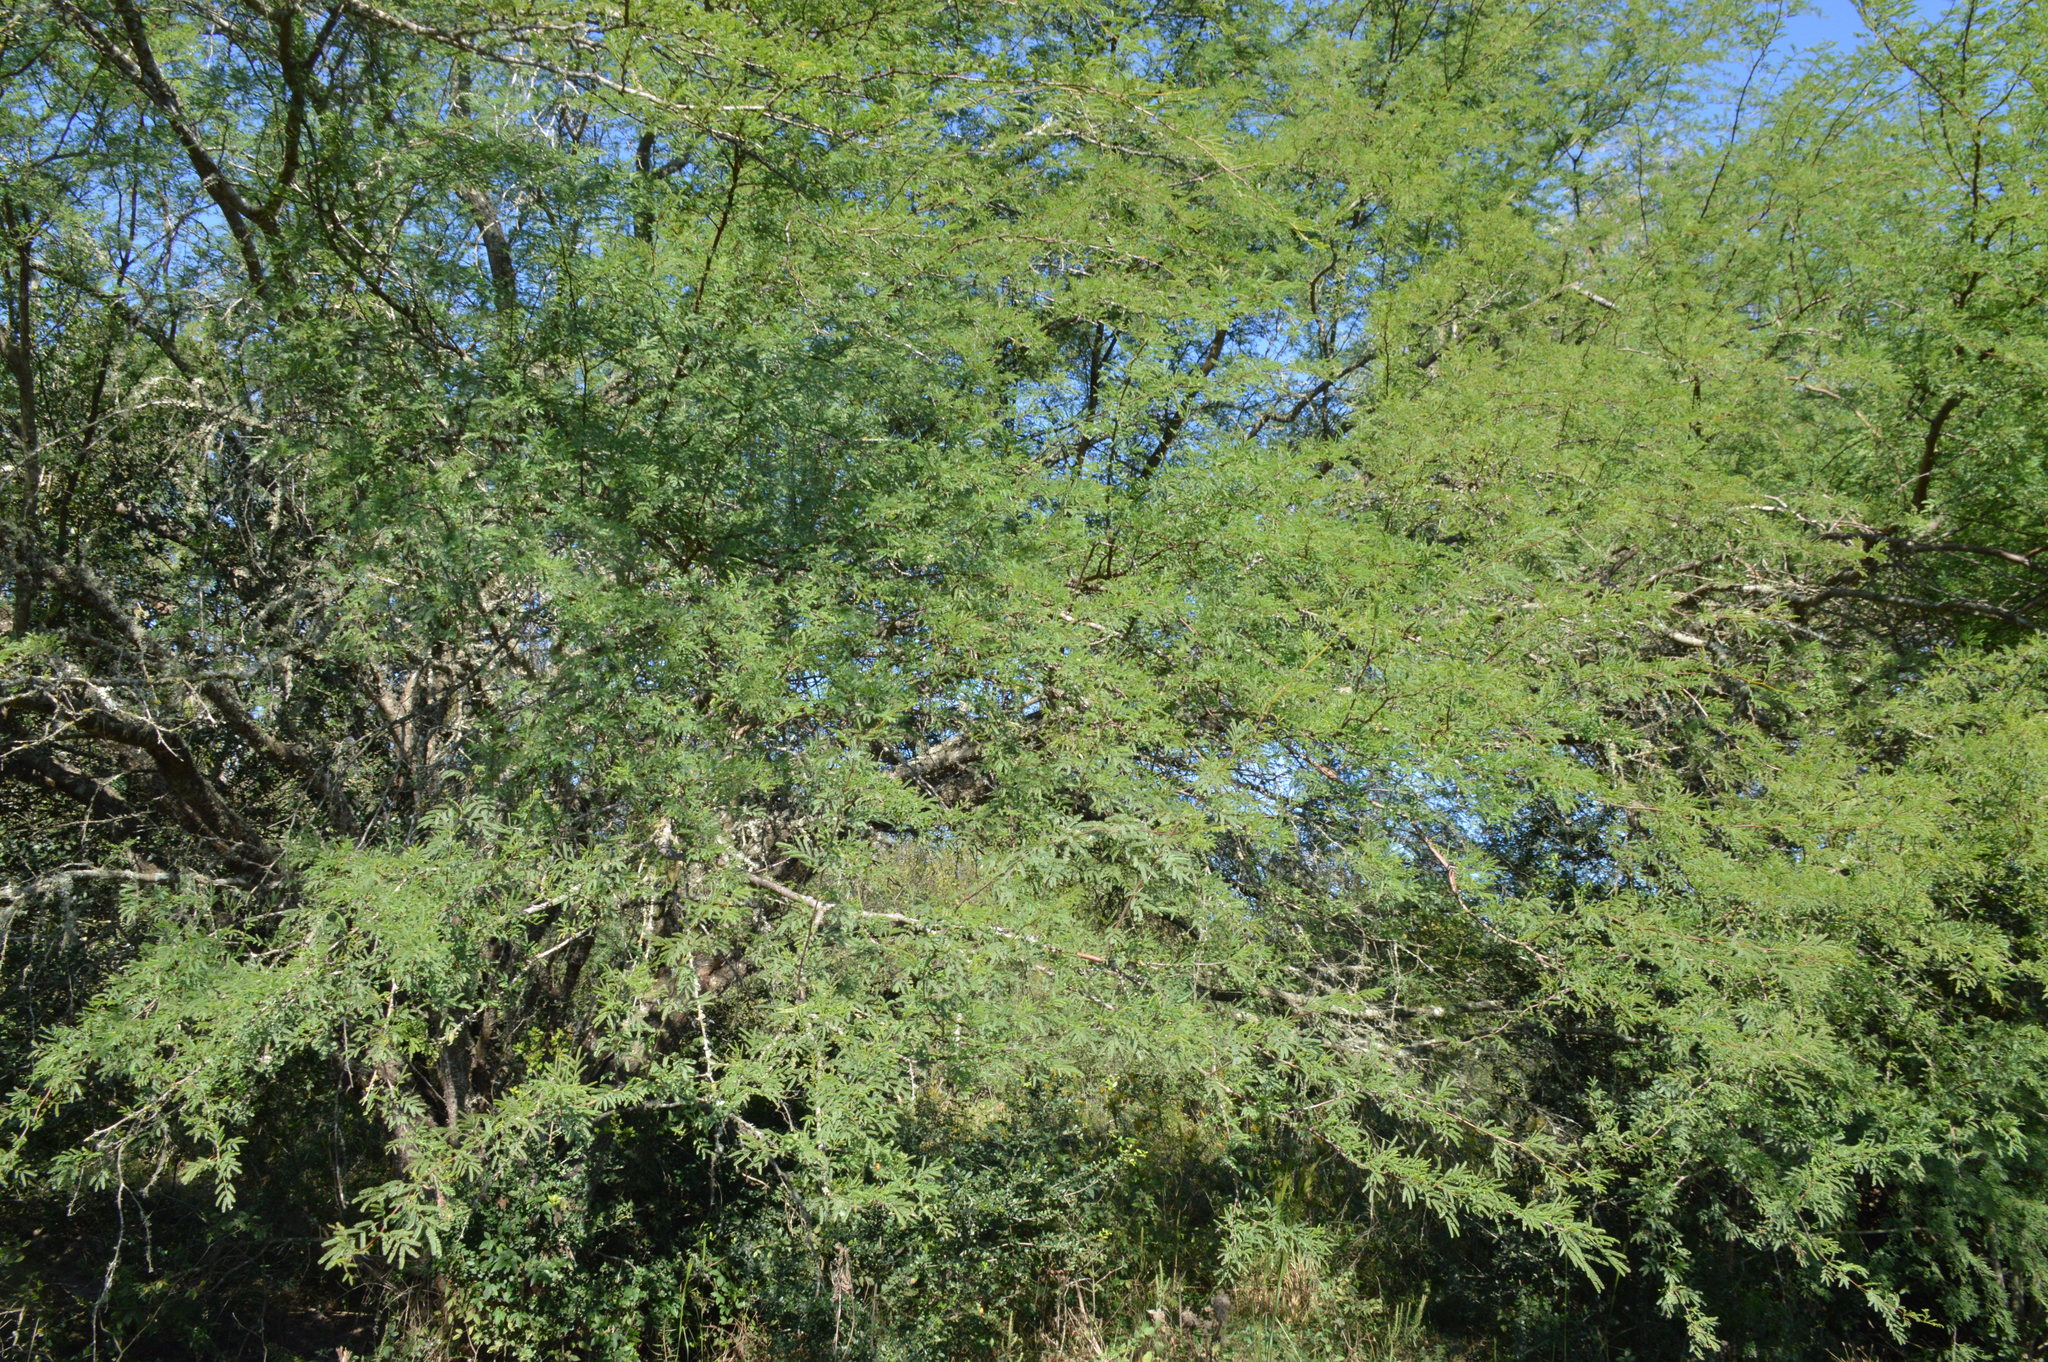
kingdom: Plantae
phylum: Tracheophyta
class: Magnoliopsida
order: Fabales
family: Fabaceae
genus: Vachellia
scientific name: Vachellia farnesiana
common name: Sweet acacia
